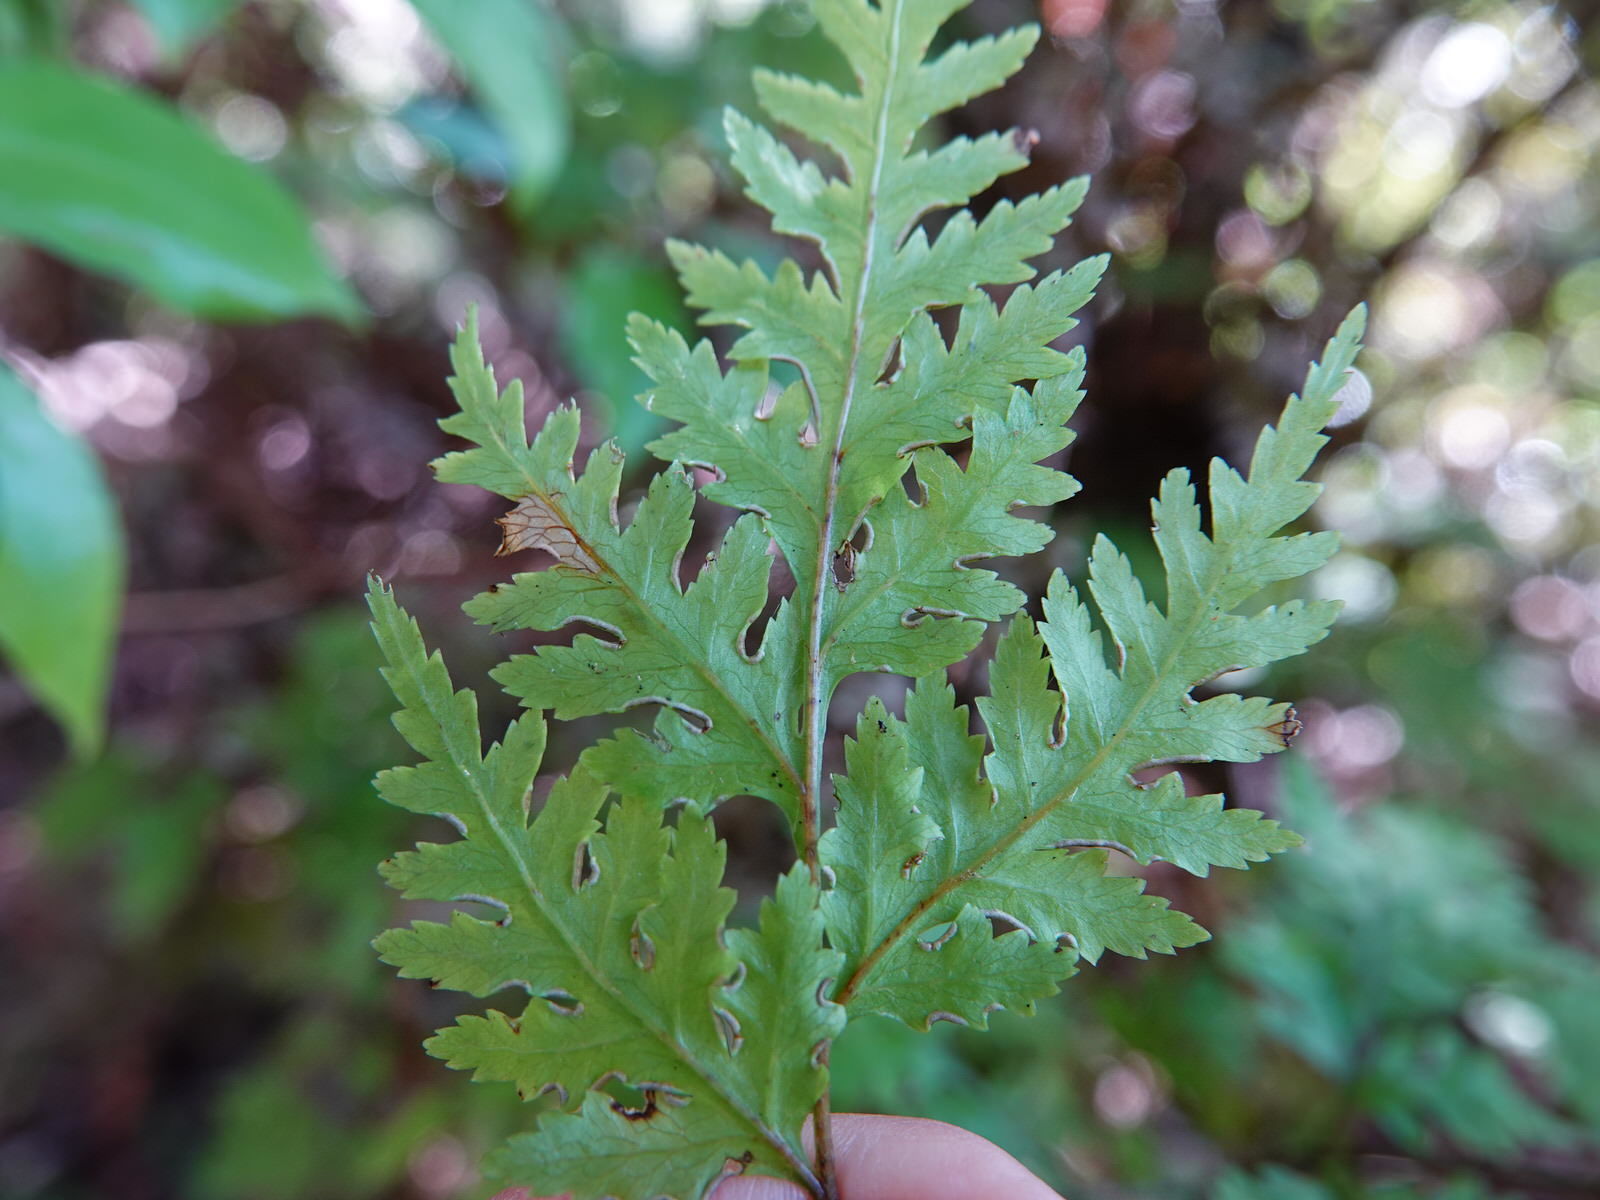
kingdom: Plantae
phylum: Tracheophyta
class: Polypodiopsida
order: Polypodiales
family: Pteridaceae
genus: Pteris
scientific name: Pteris macilenta
